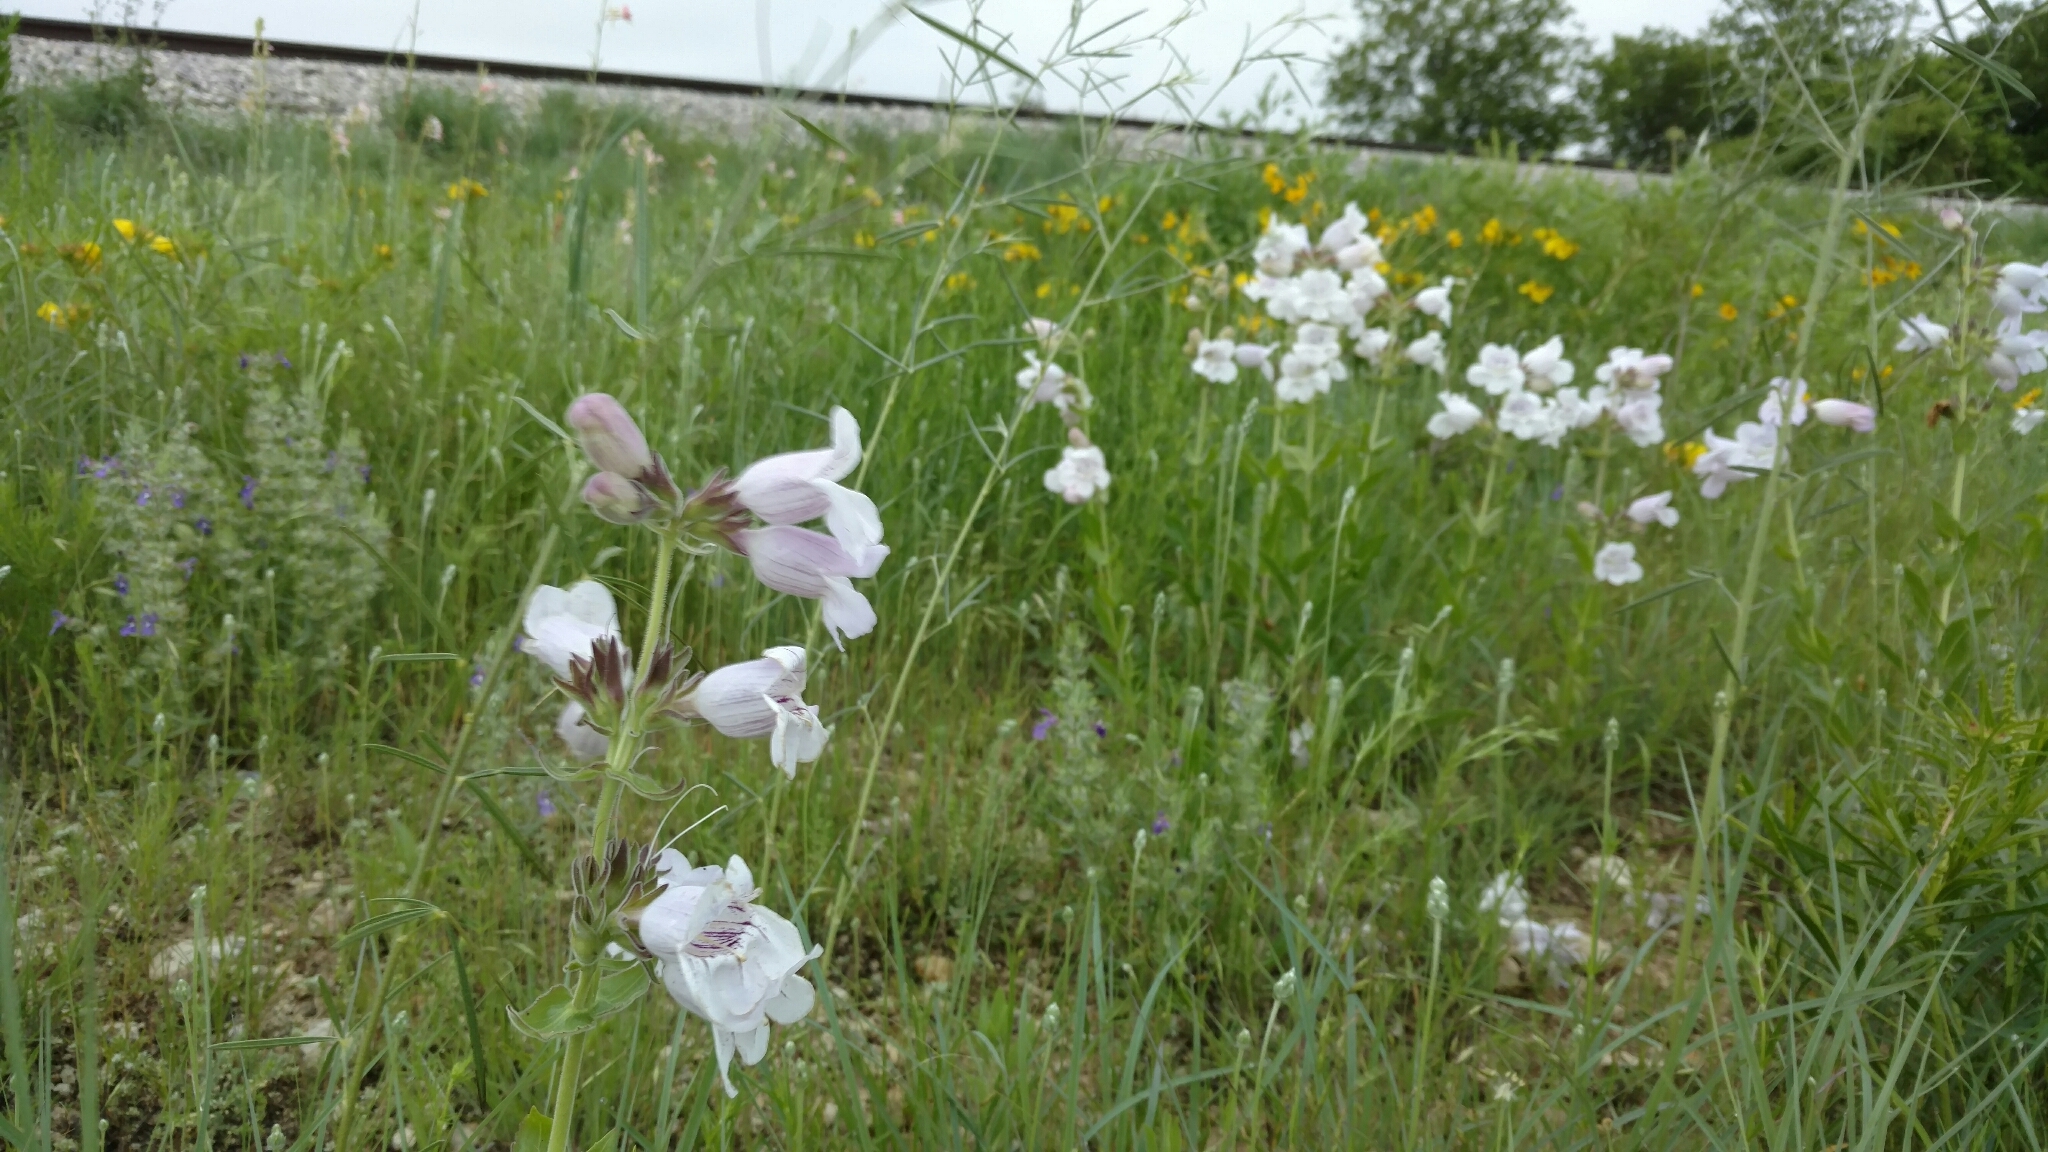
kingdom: Plantae
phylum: Tracheophyta
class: Magnoliopsida
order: Lamiales
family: Plantaginaceae
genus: Penstemon
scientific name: Penstemon cobaea
